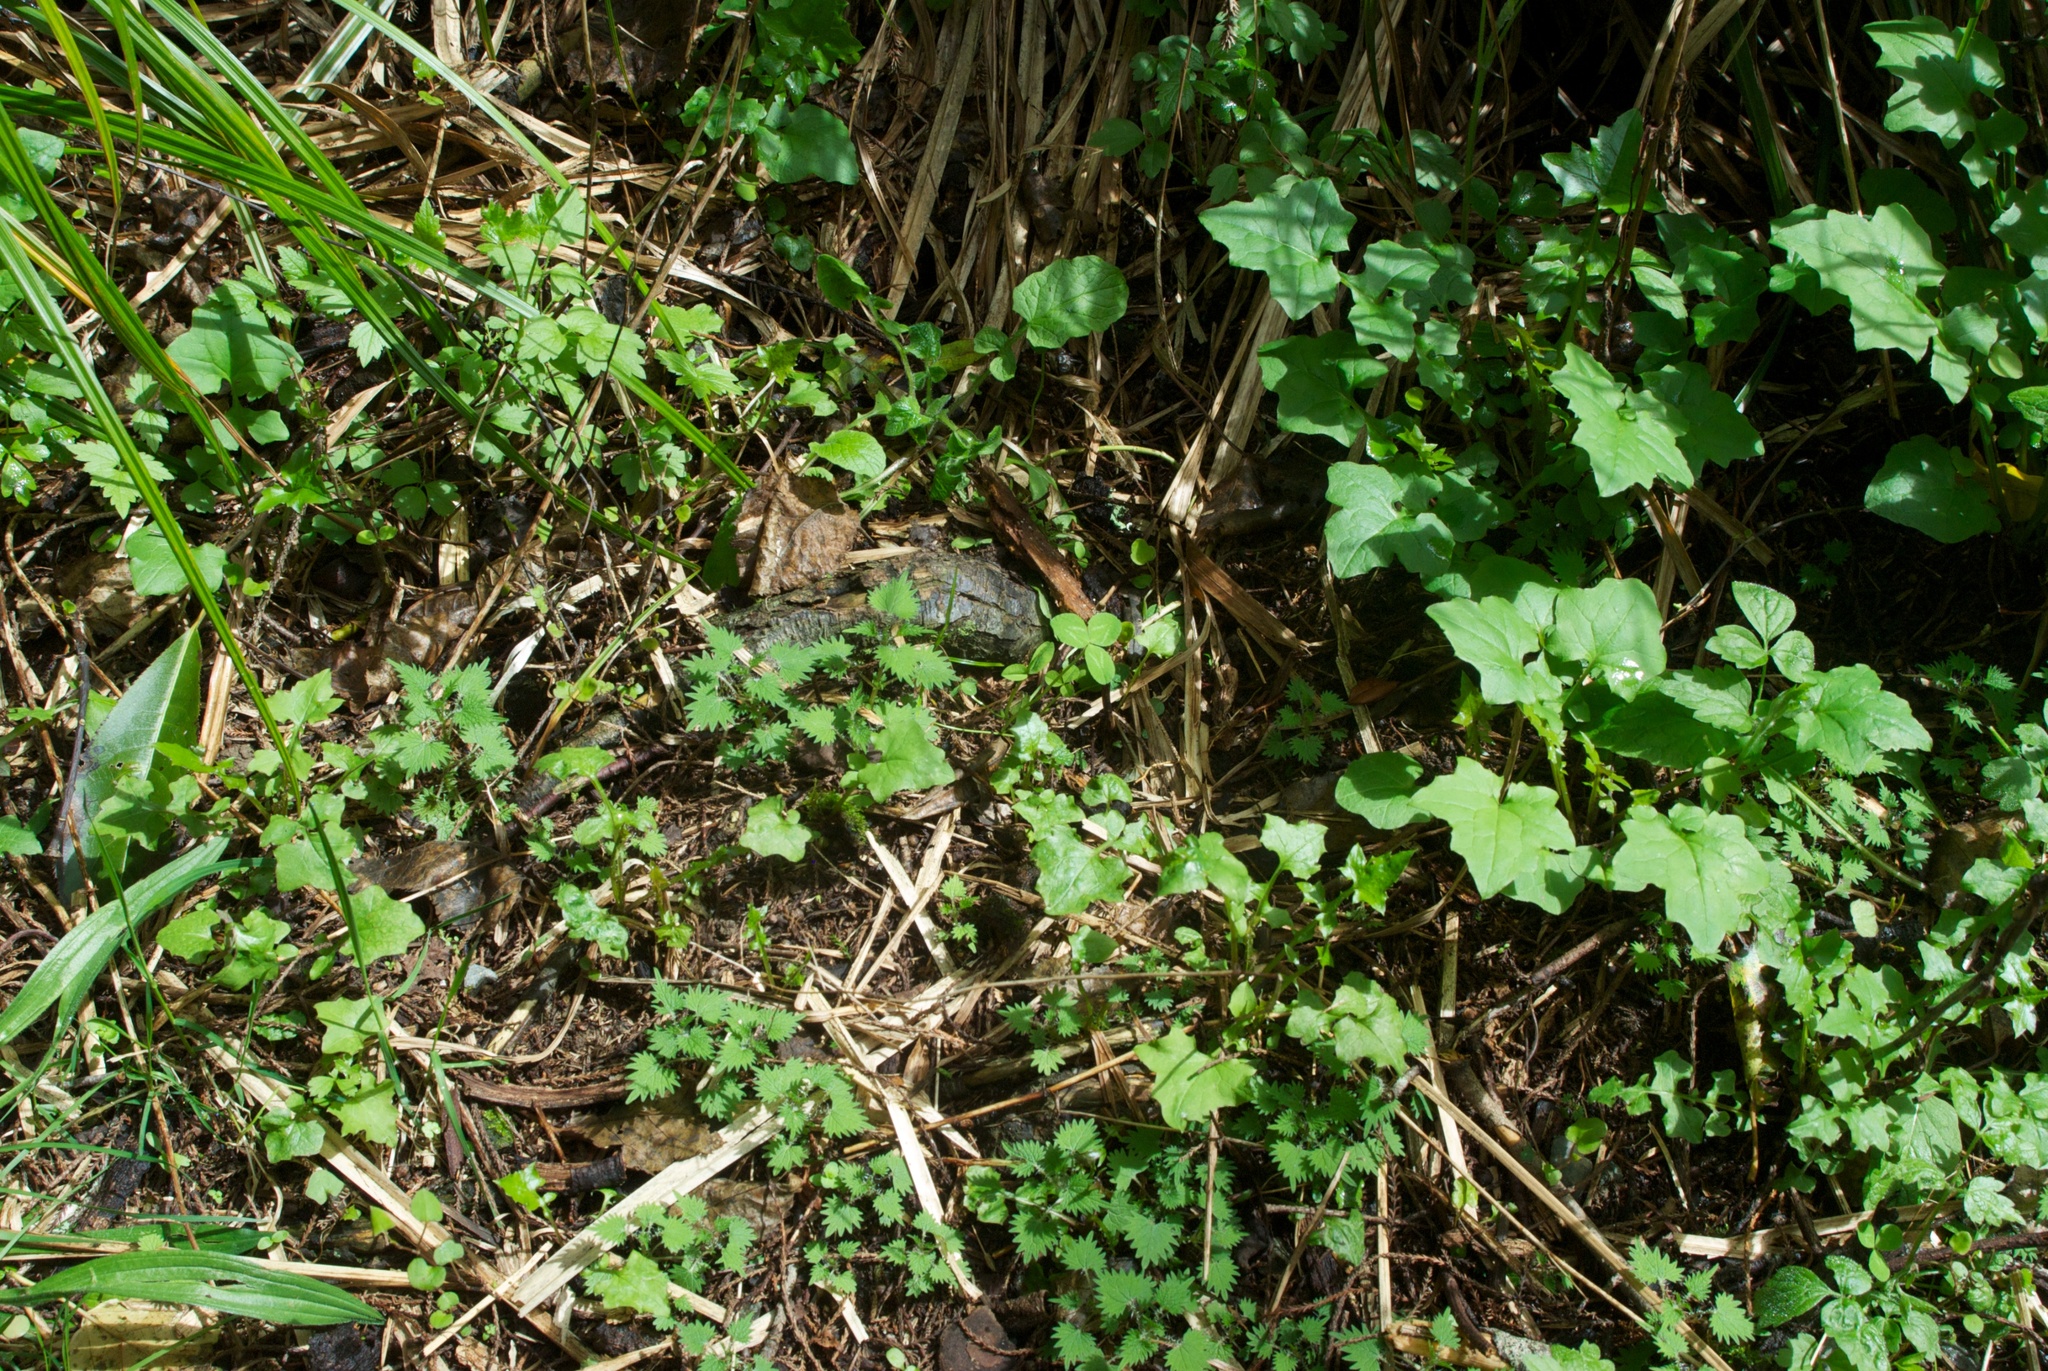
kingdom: Plantae
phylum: Tracheophyta
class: Magnoliopsida
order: Asterales
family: Asteraceae
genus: Mycelis
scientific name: Mycelis muralis
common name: Wall lettuce
